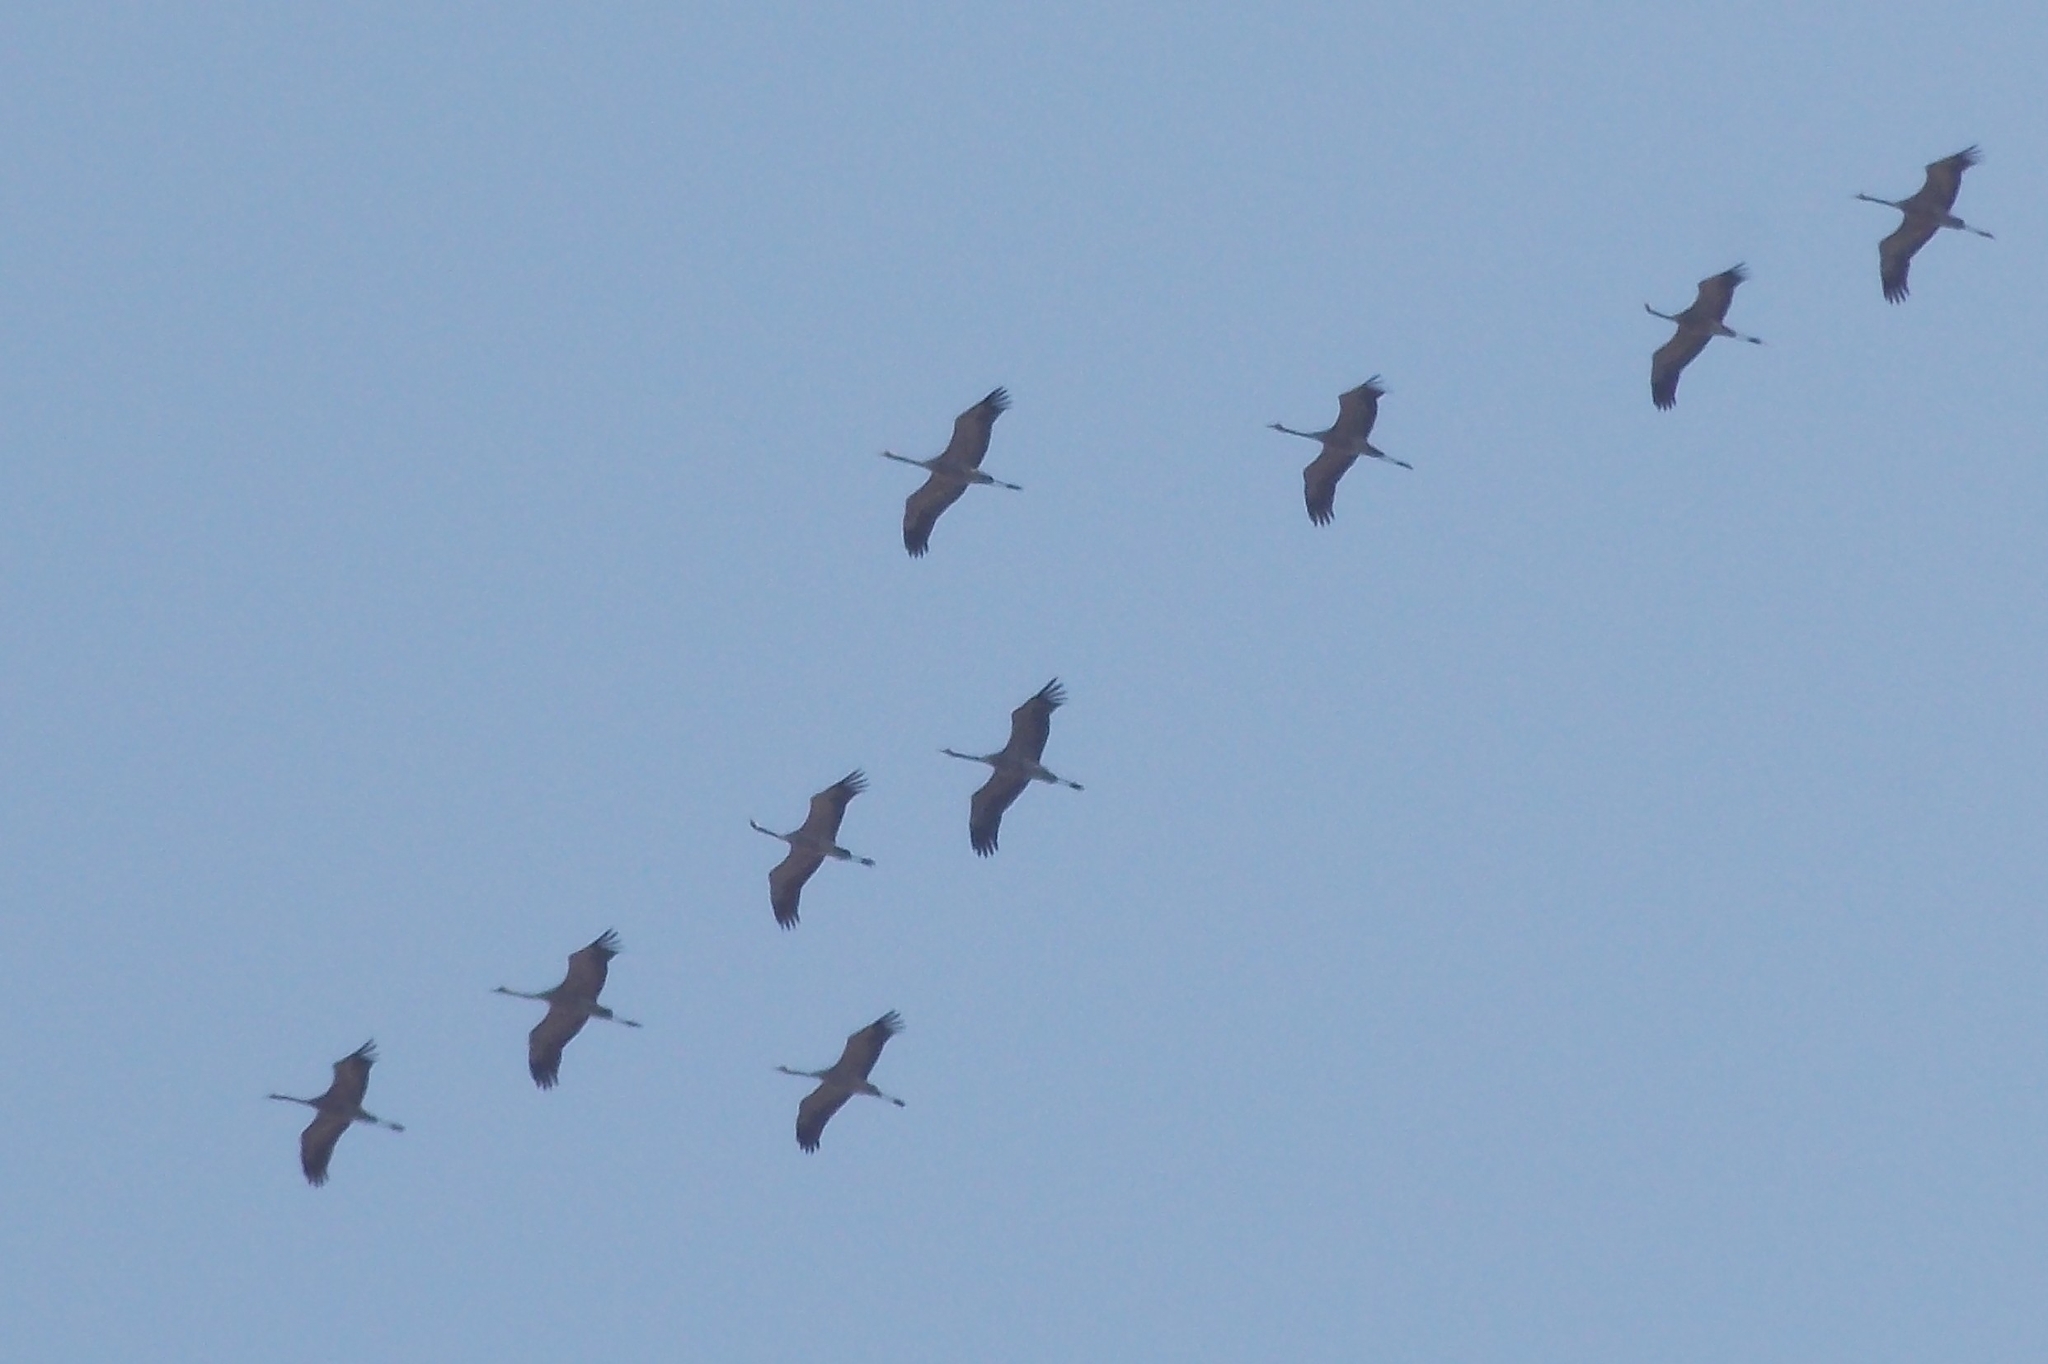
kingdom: Animalia
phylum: Chordata
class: Aves
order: Gruiformes
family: Gruidae
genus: Grus
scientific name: Grus grus
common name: Common crane
